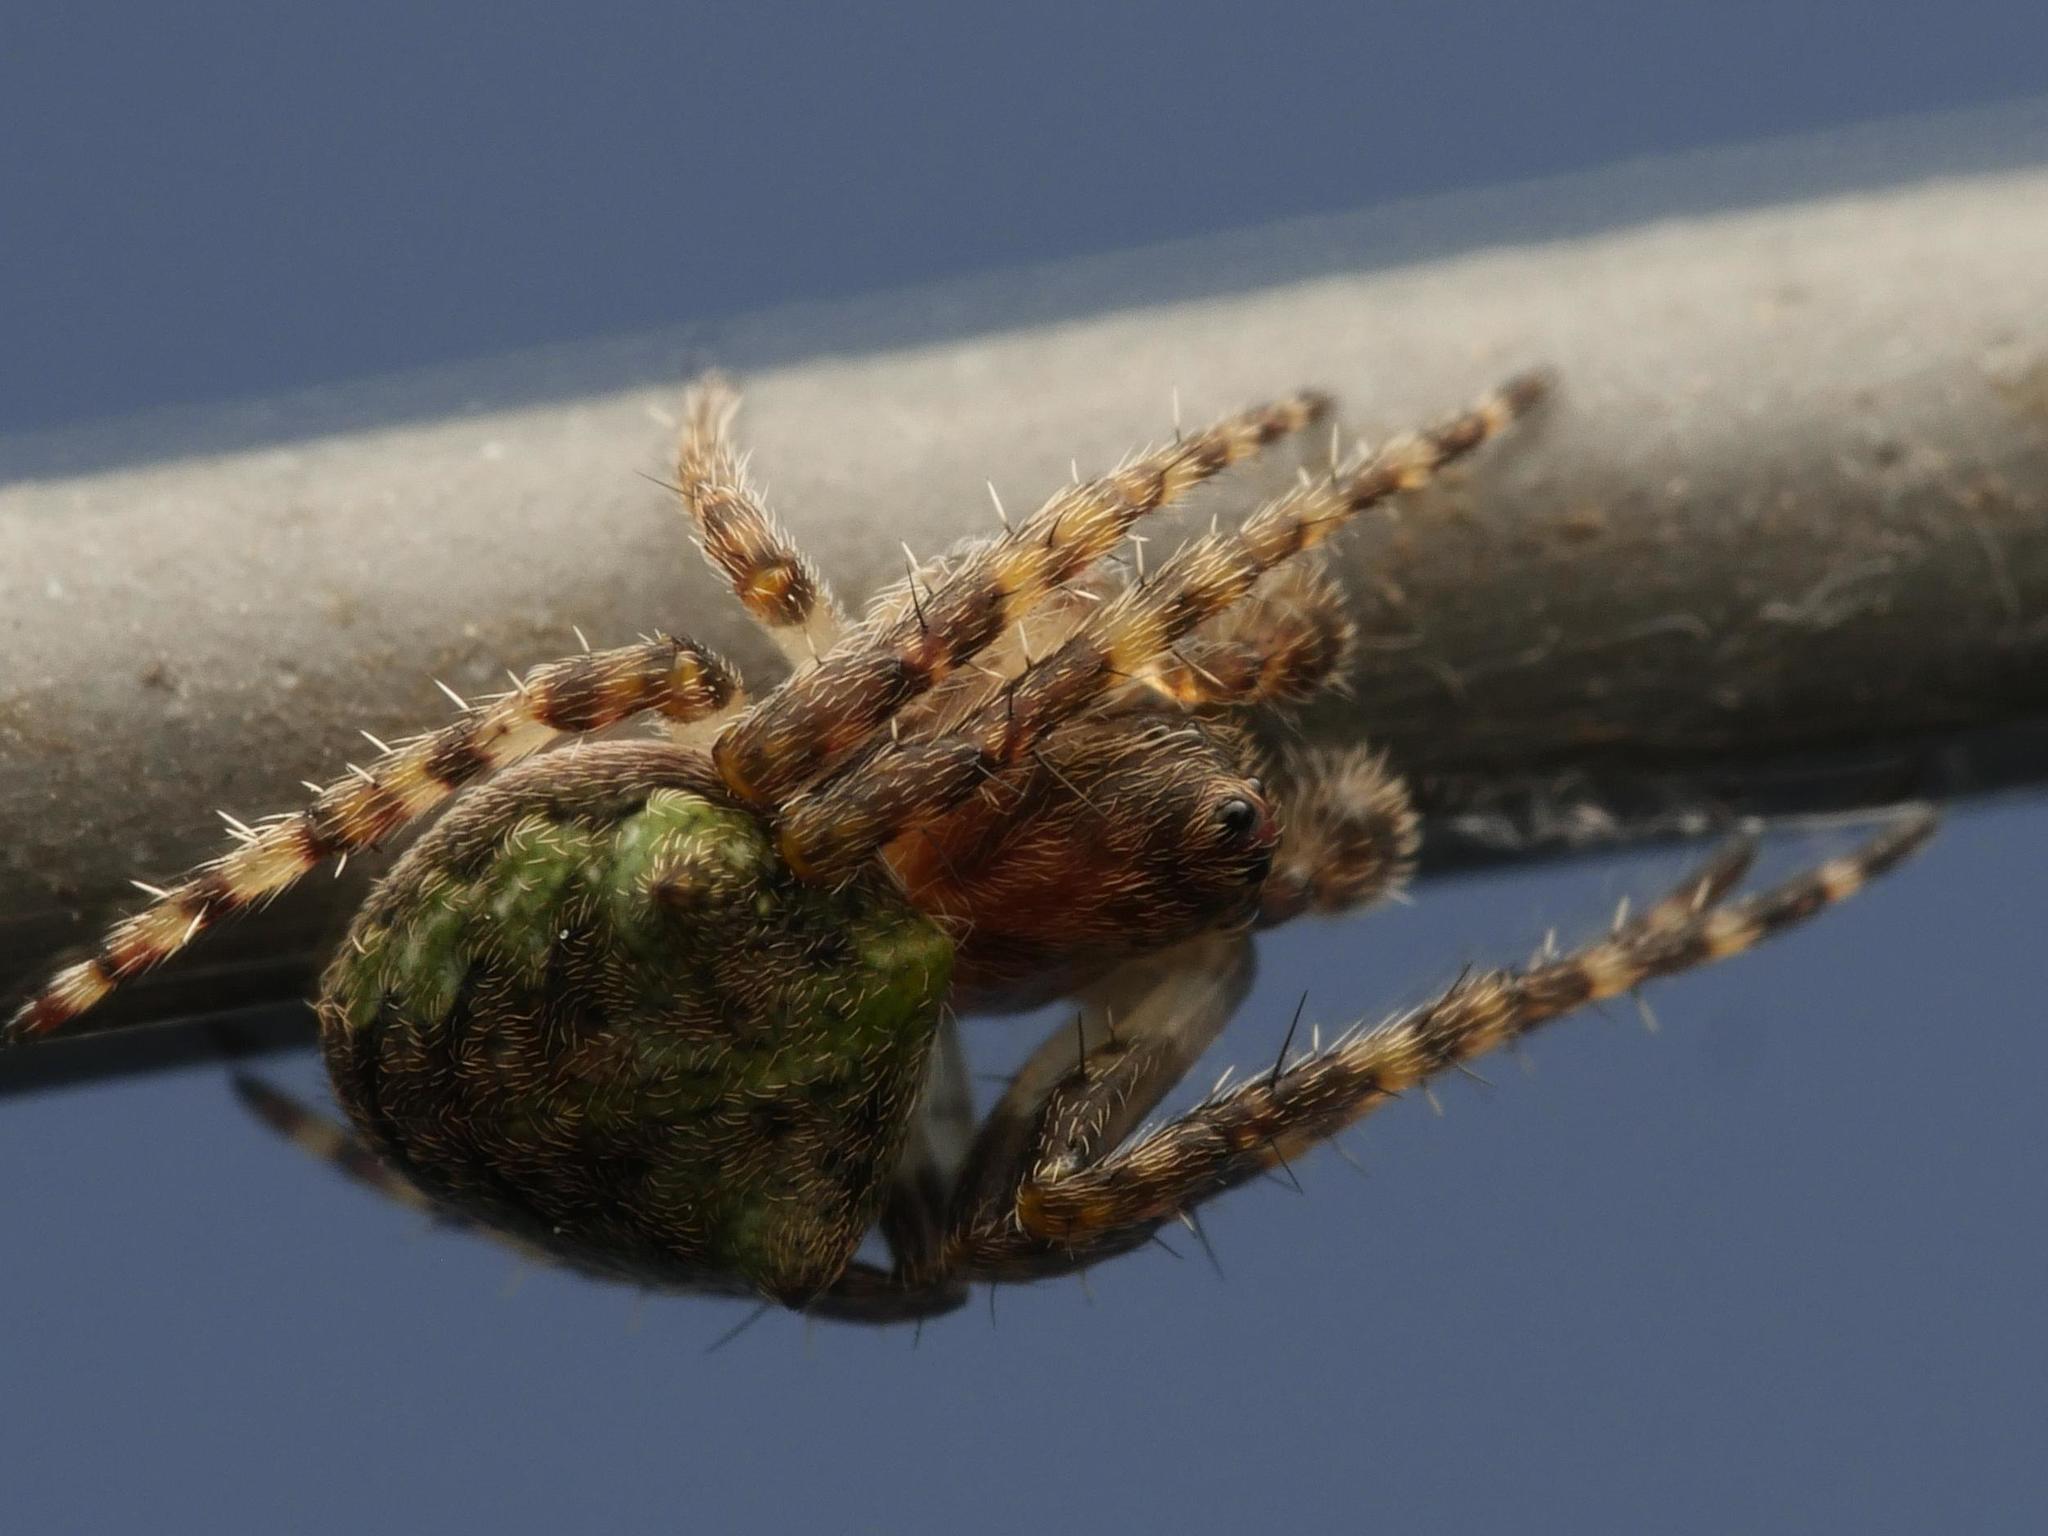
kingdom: Animalia
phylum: Arthropoda
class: Arachnida
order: Araneae
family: Araneidae
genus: Gibbaranea
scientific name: Gibbaranea gibbosa
